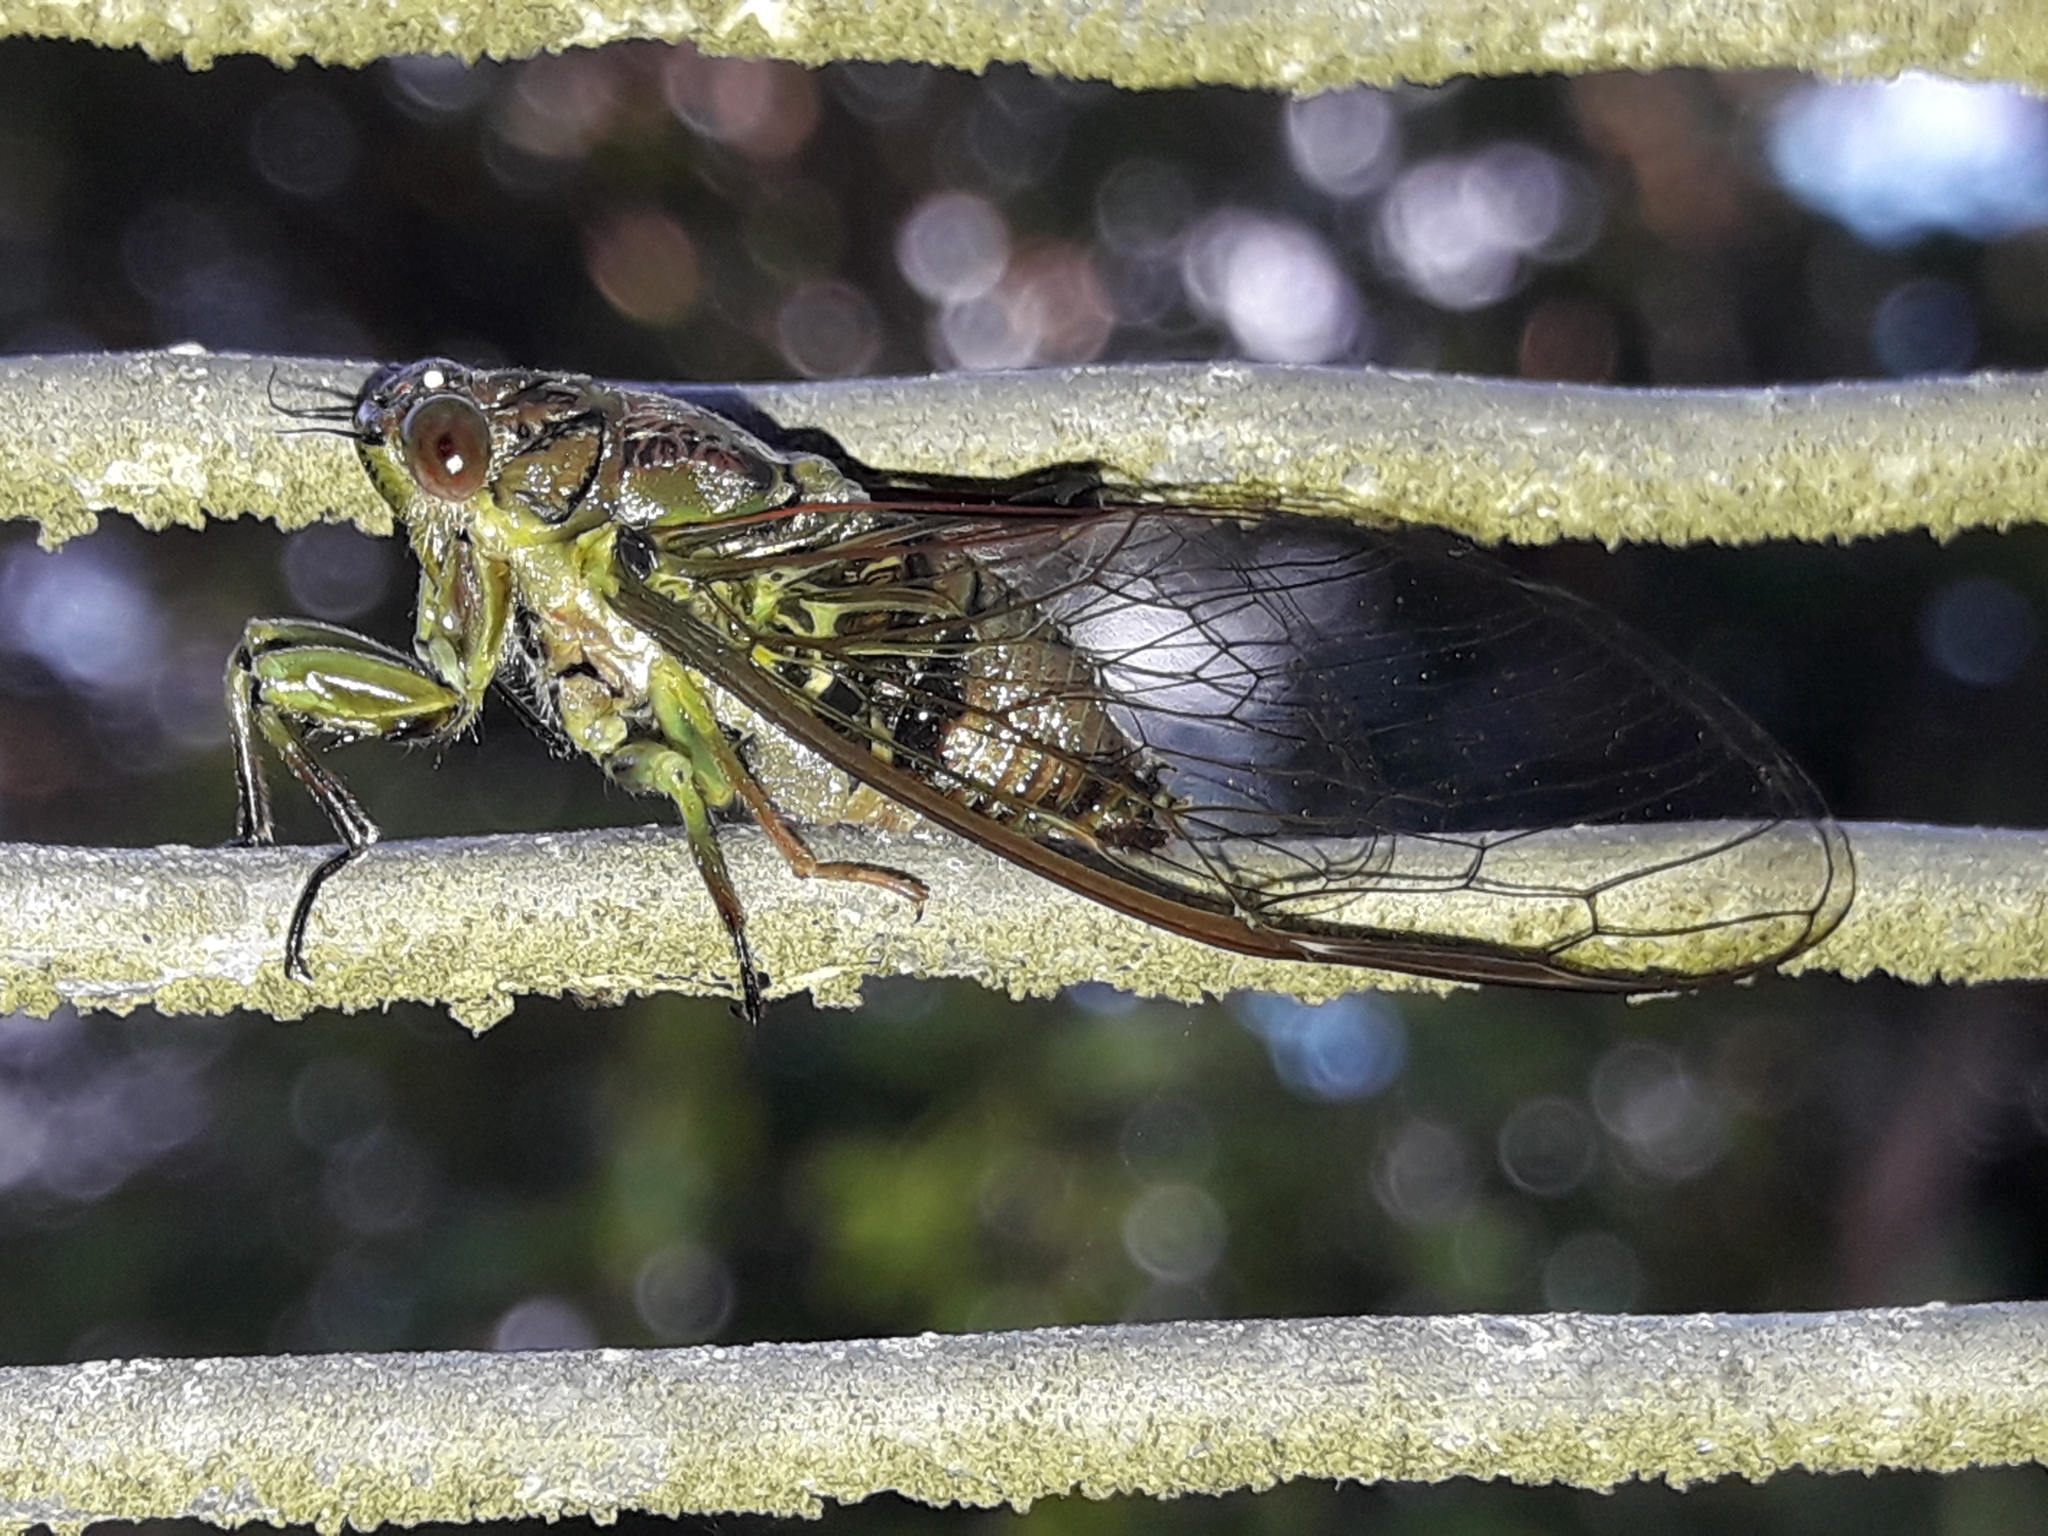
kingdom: Animalia
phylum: Arthropoda
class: Insecta
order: Hemiptera
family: Cicadidae
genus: Kikihia
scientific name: Kikihia scutellaris
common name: Lesser bronze cicada
